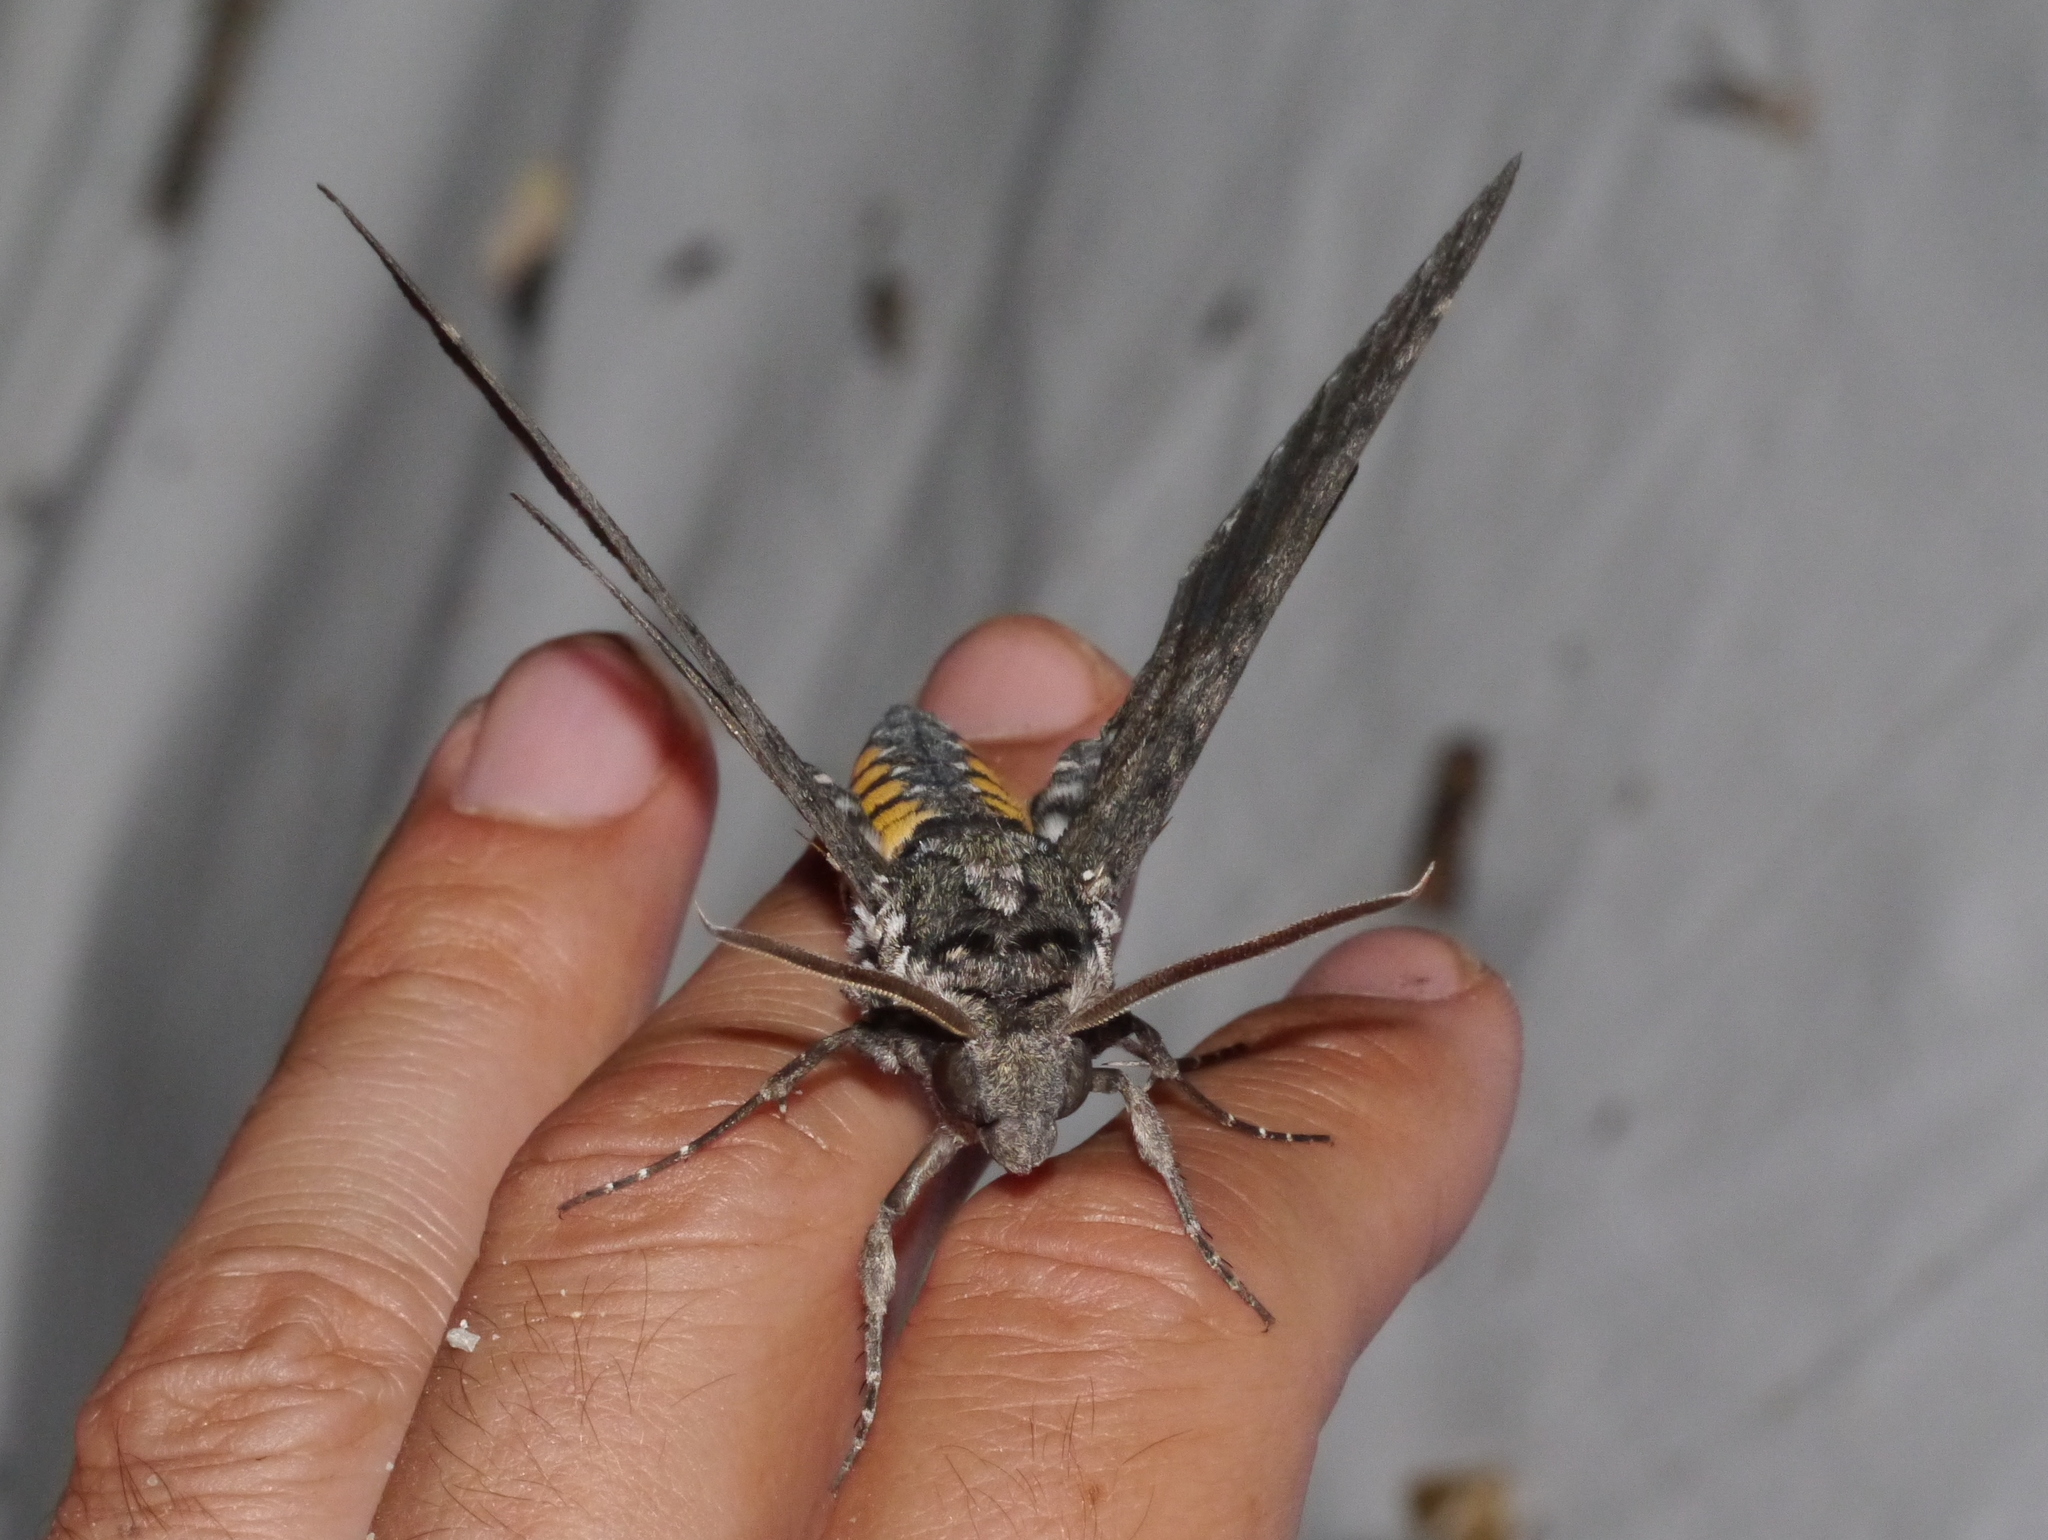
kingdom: Animalia
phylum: Arthropoda
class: Insecta
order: Lepidoptera
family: Sphingidae
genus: Manduca
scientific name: Manduca sexta
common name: Carolina sphinx
